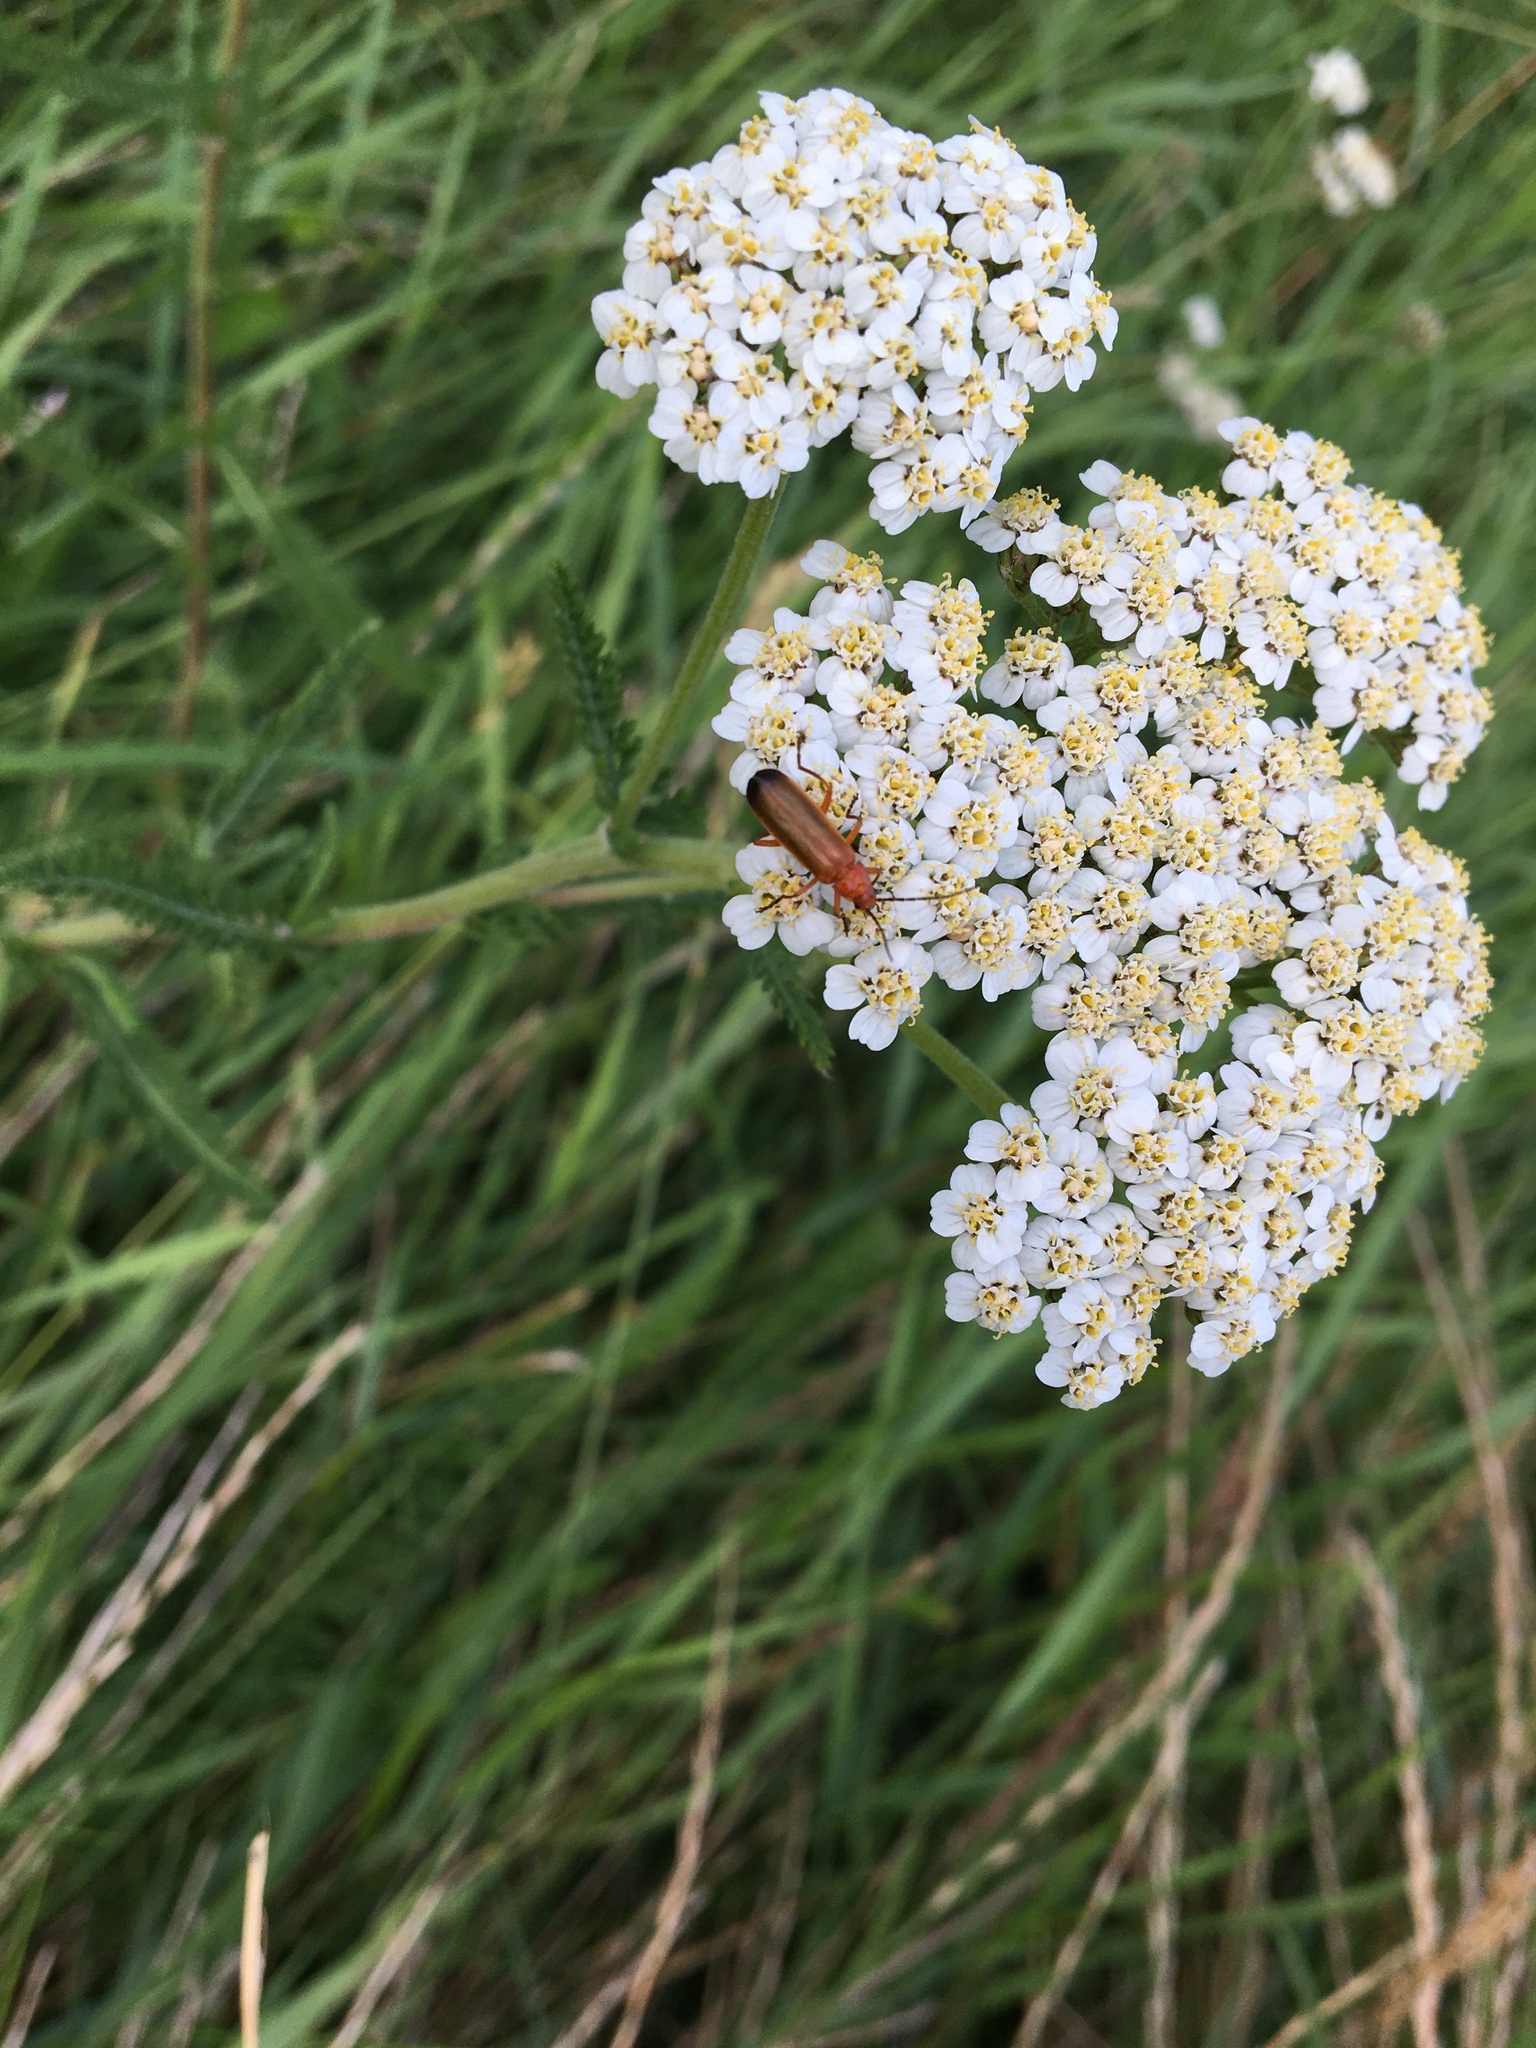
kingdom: Animalia
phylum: Arthropoda
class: Insecta
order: Coleoptera
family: Cantharidae
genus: Rhagonycha
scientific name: Rhagonycha fulva
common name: Common red soldier beetle
